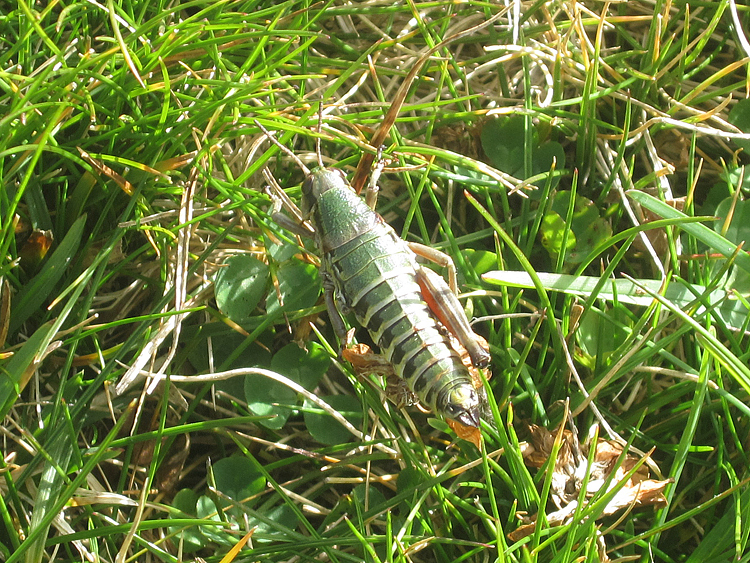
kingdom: Animalia
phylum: Arthropoda
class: Insecta
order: Orthoptera
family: Acrididae
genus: Cophopodisma
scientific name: Cophopodisma pyrenaea
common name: Pyrenean mountain grasshopper
